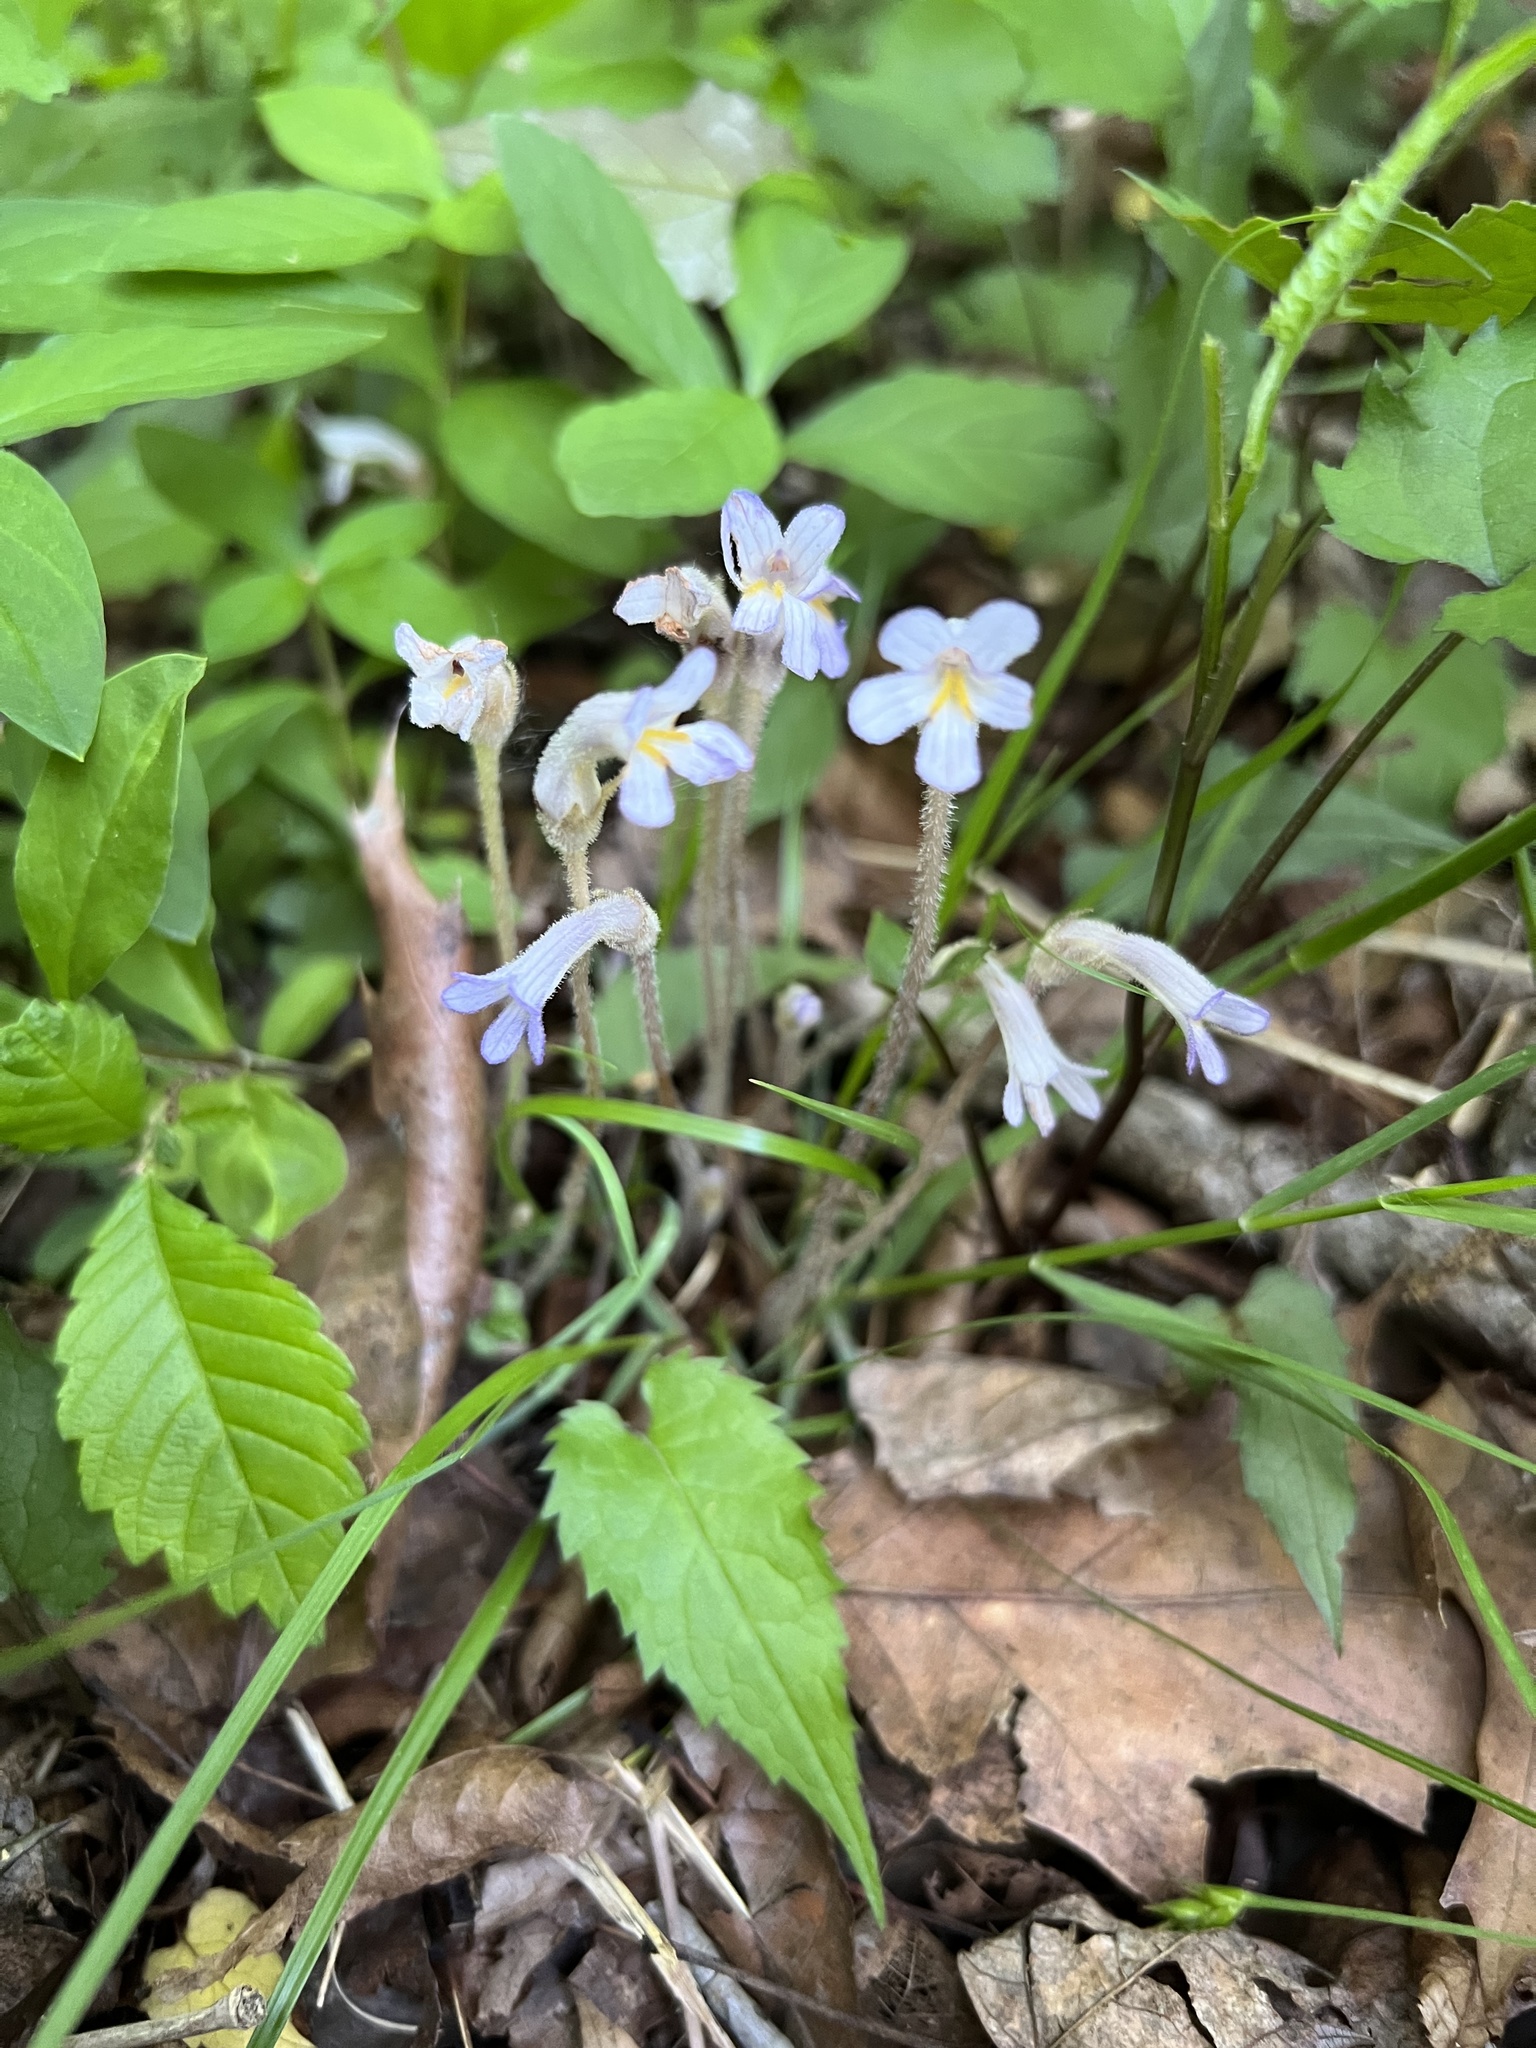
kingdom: Plantae
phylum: Tracheophyta
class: Magnoliopsida
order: Lamiales
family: Orobanchaceae
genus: Aphyllon
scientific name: Aphyllon uniflorum
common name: One-flowered broomrape
